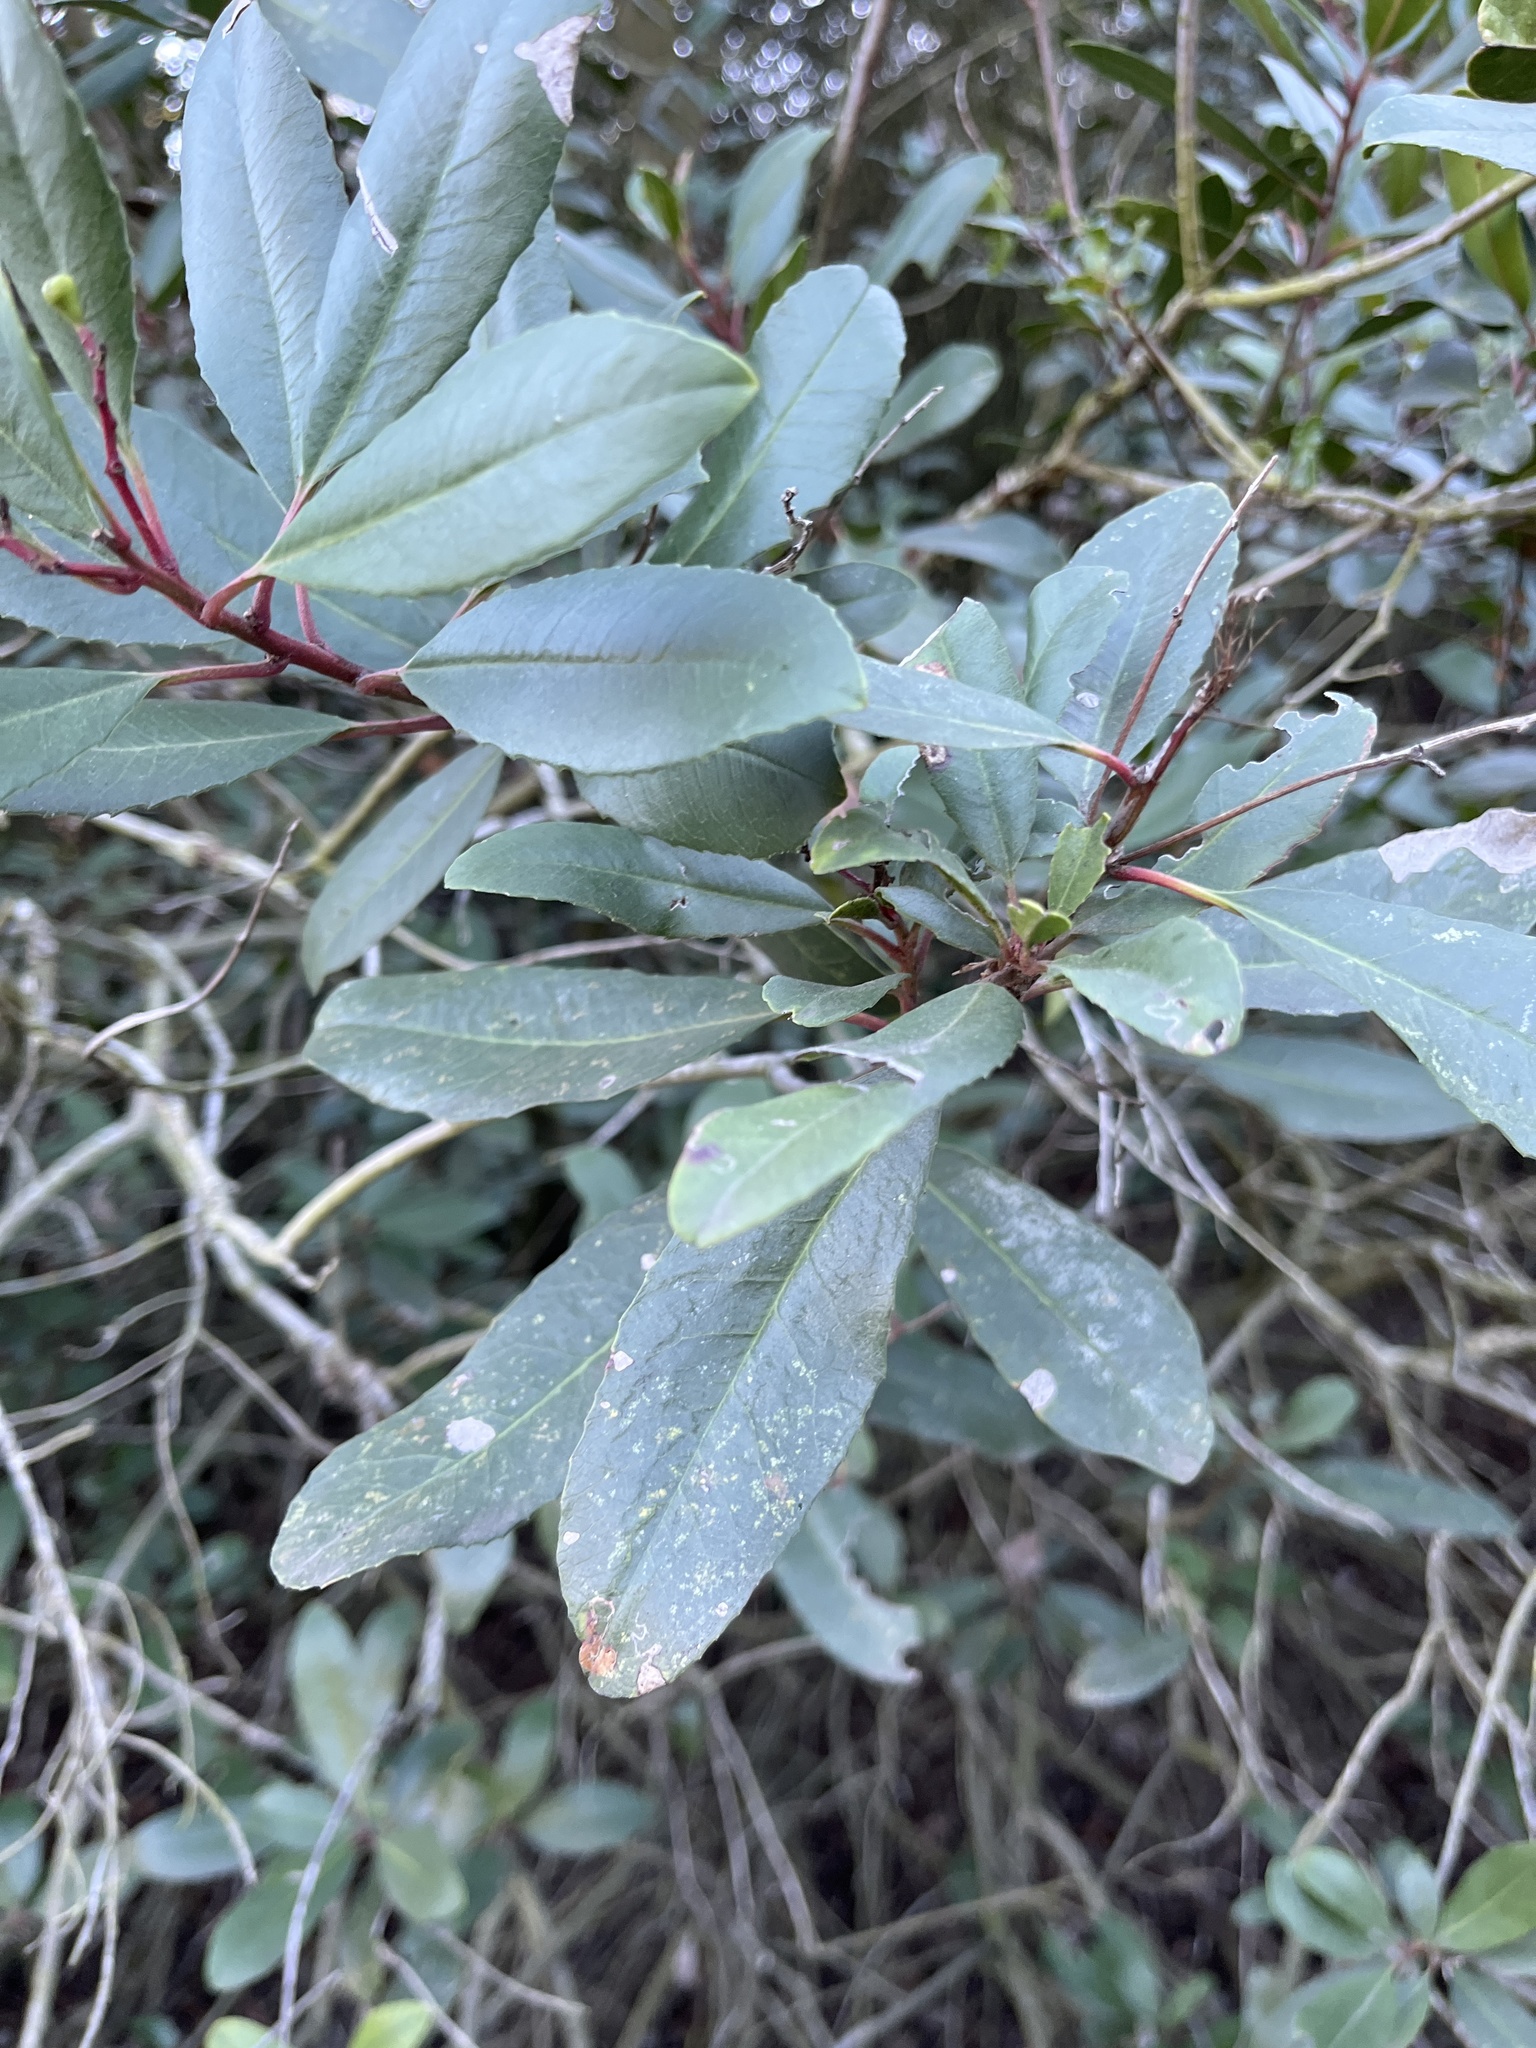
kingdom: Plantae
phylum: Tracheophyta
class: Magnoliopsida
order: Rosales
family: Rosaceae
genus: Heteromeles
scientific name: Heteromeles arbutifolia
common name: California-holly
